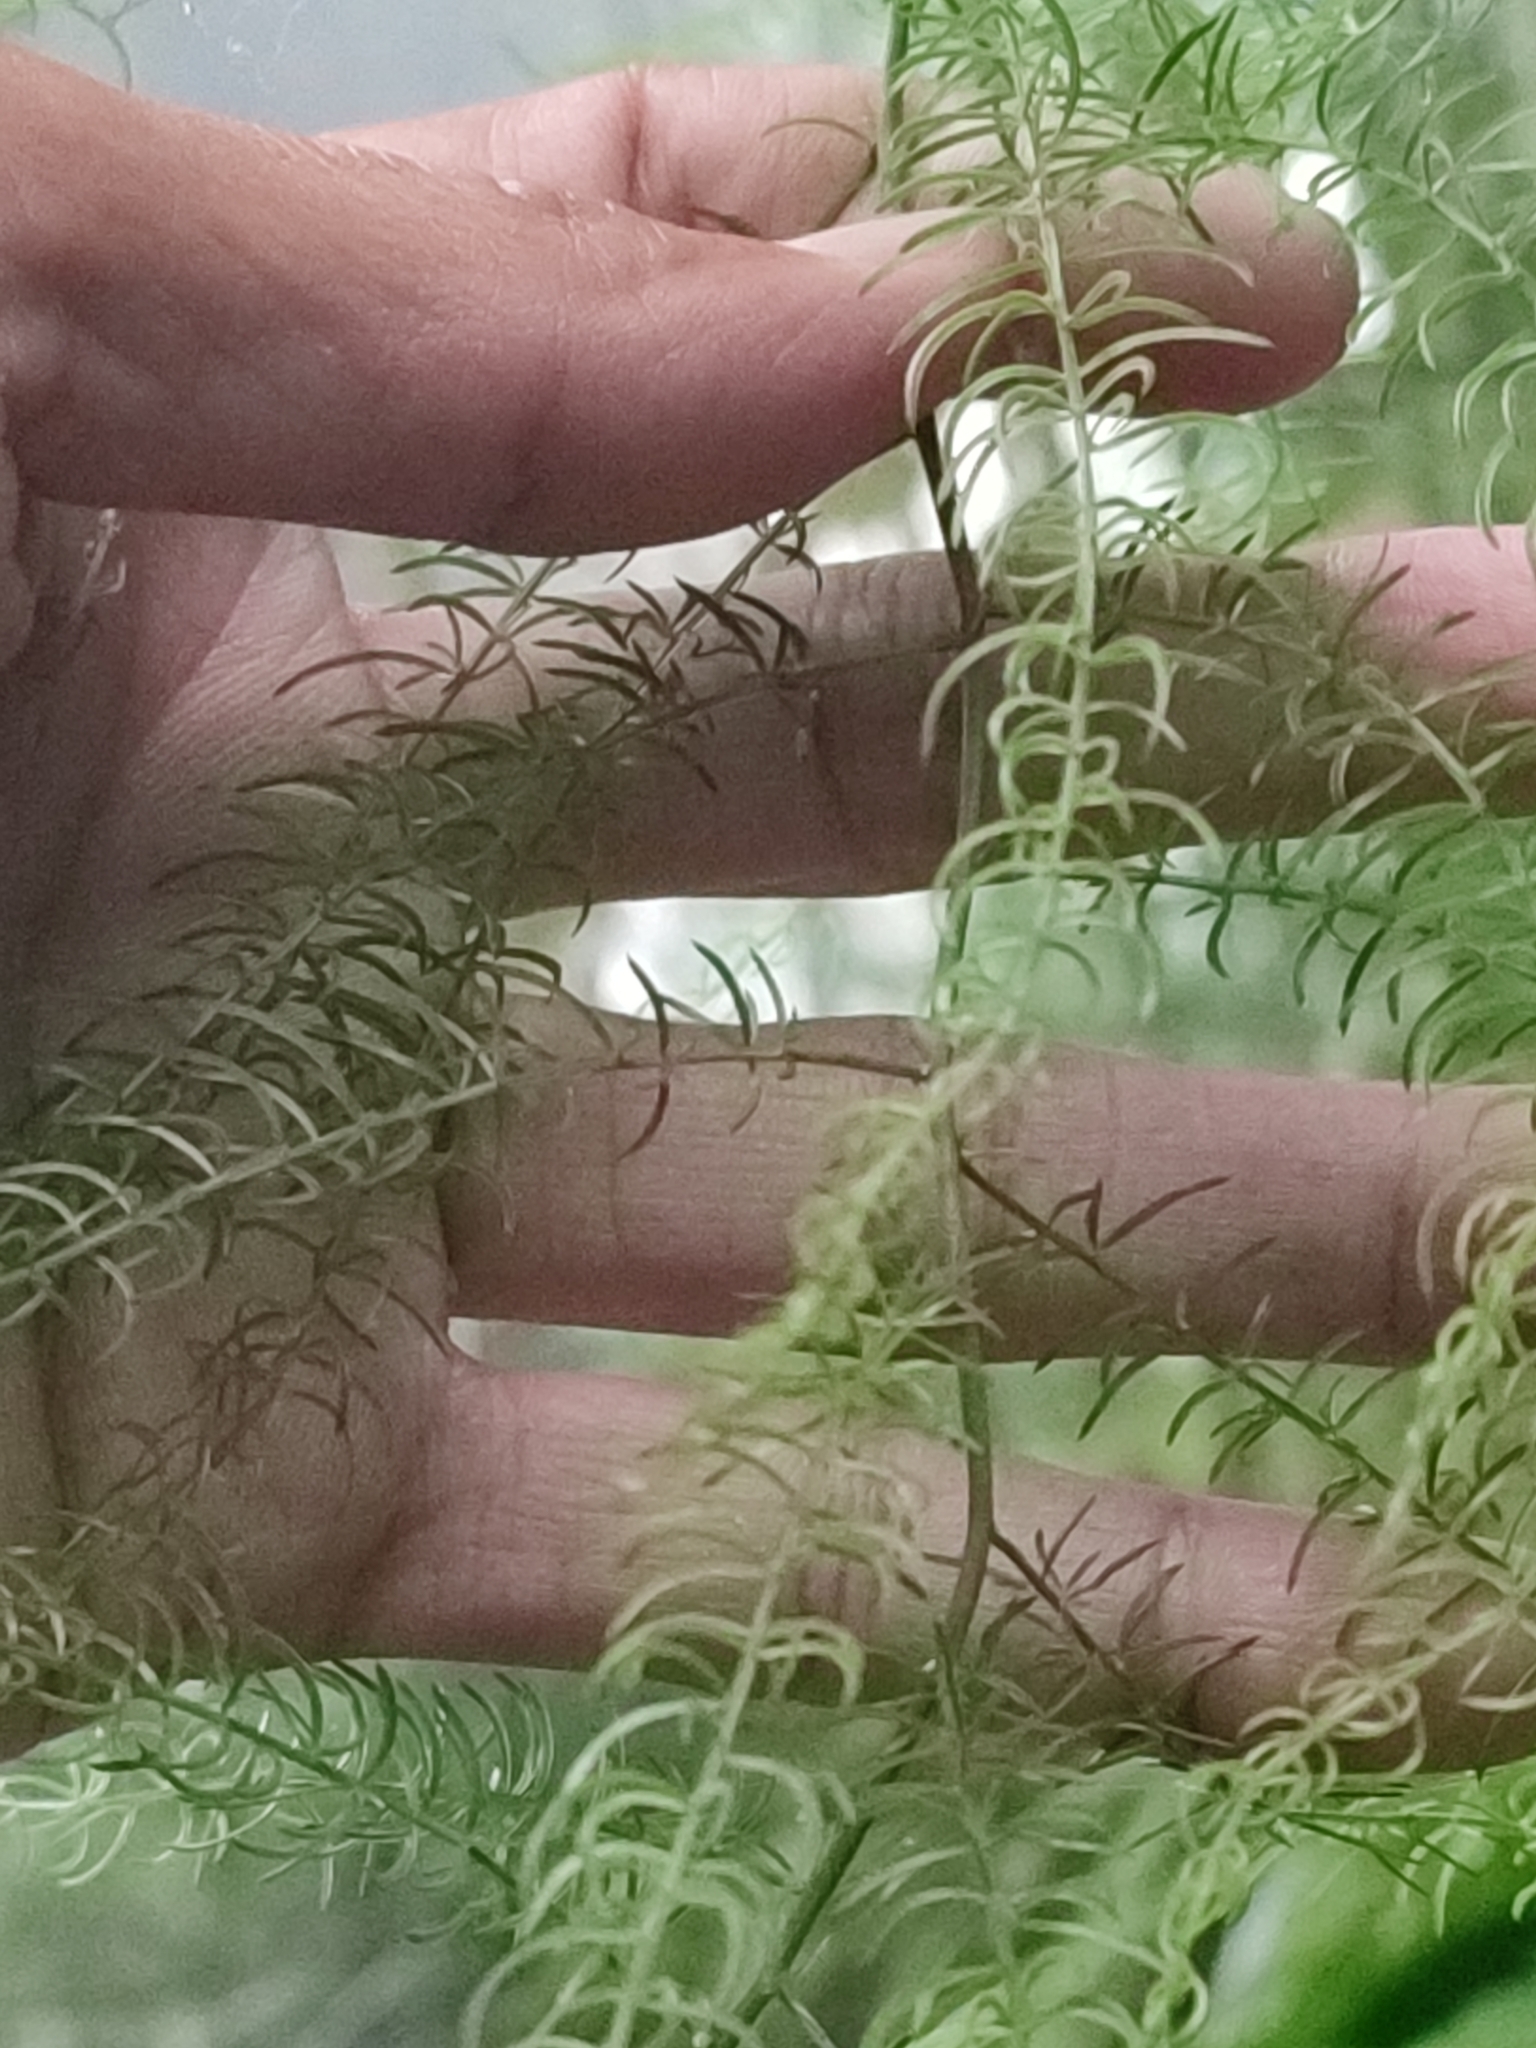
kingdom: Plantae
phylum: Tracheophyta
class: Liliopsida
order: Asparagales
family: Asparagaceae
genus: Asparagus
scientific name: Asparagus cochinchinensis
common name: Chinese asparagus
